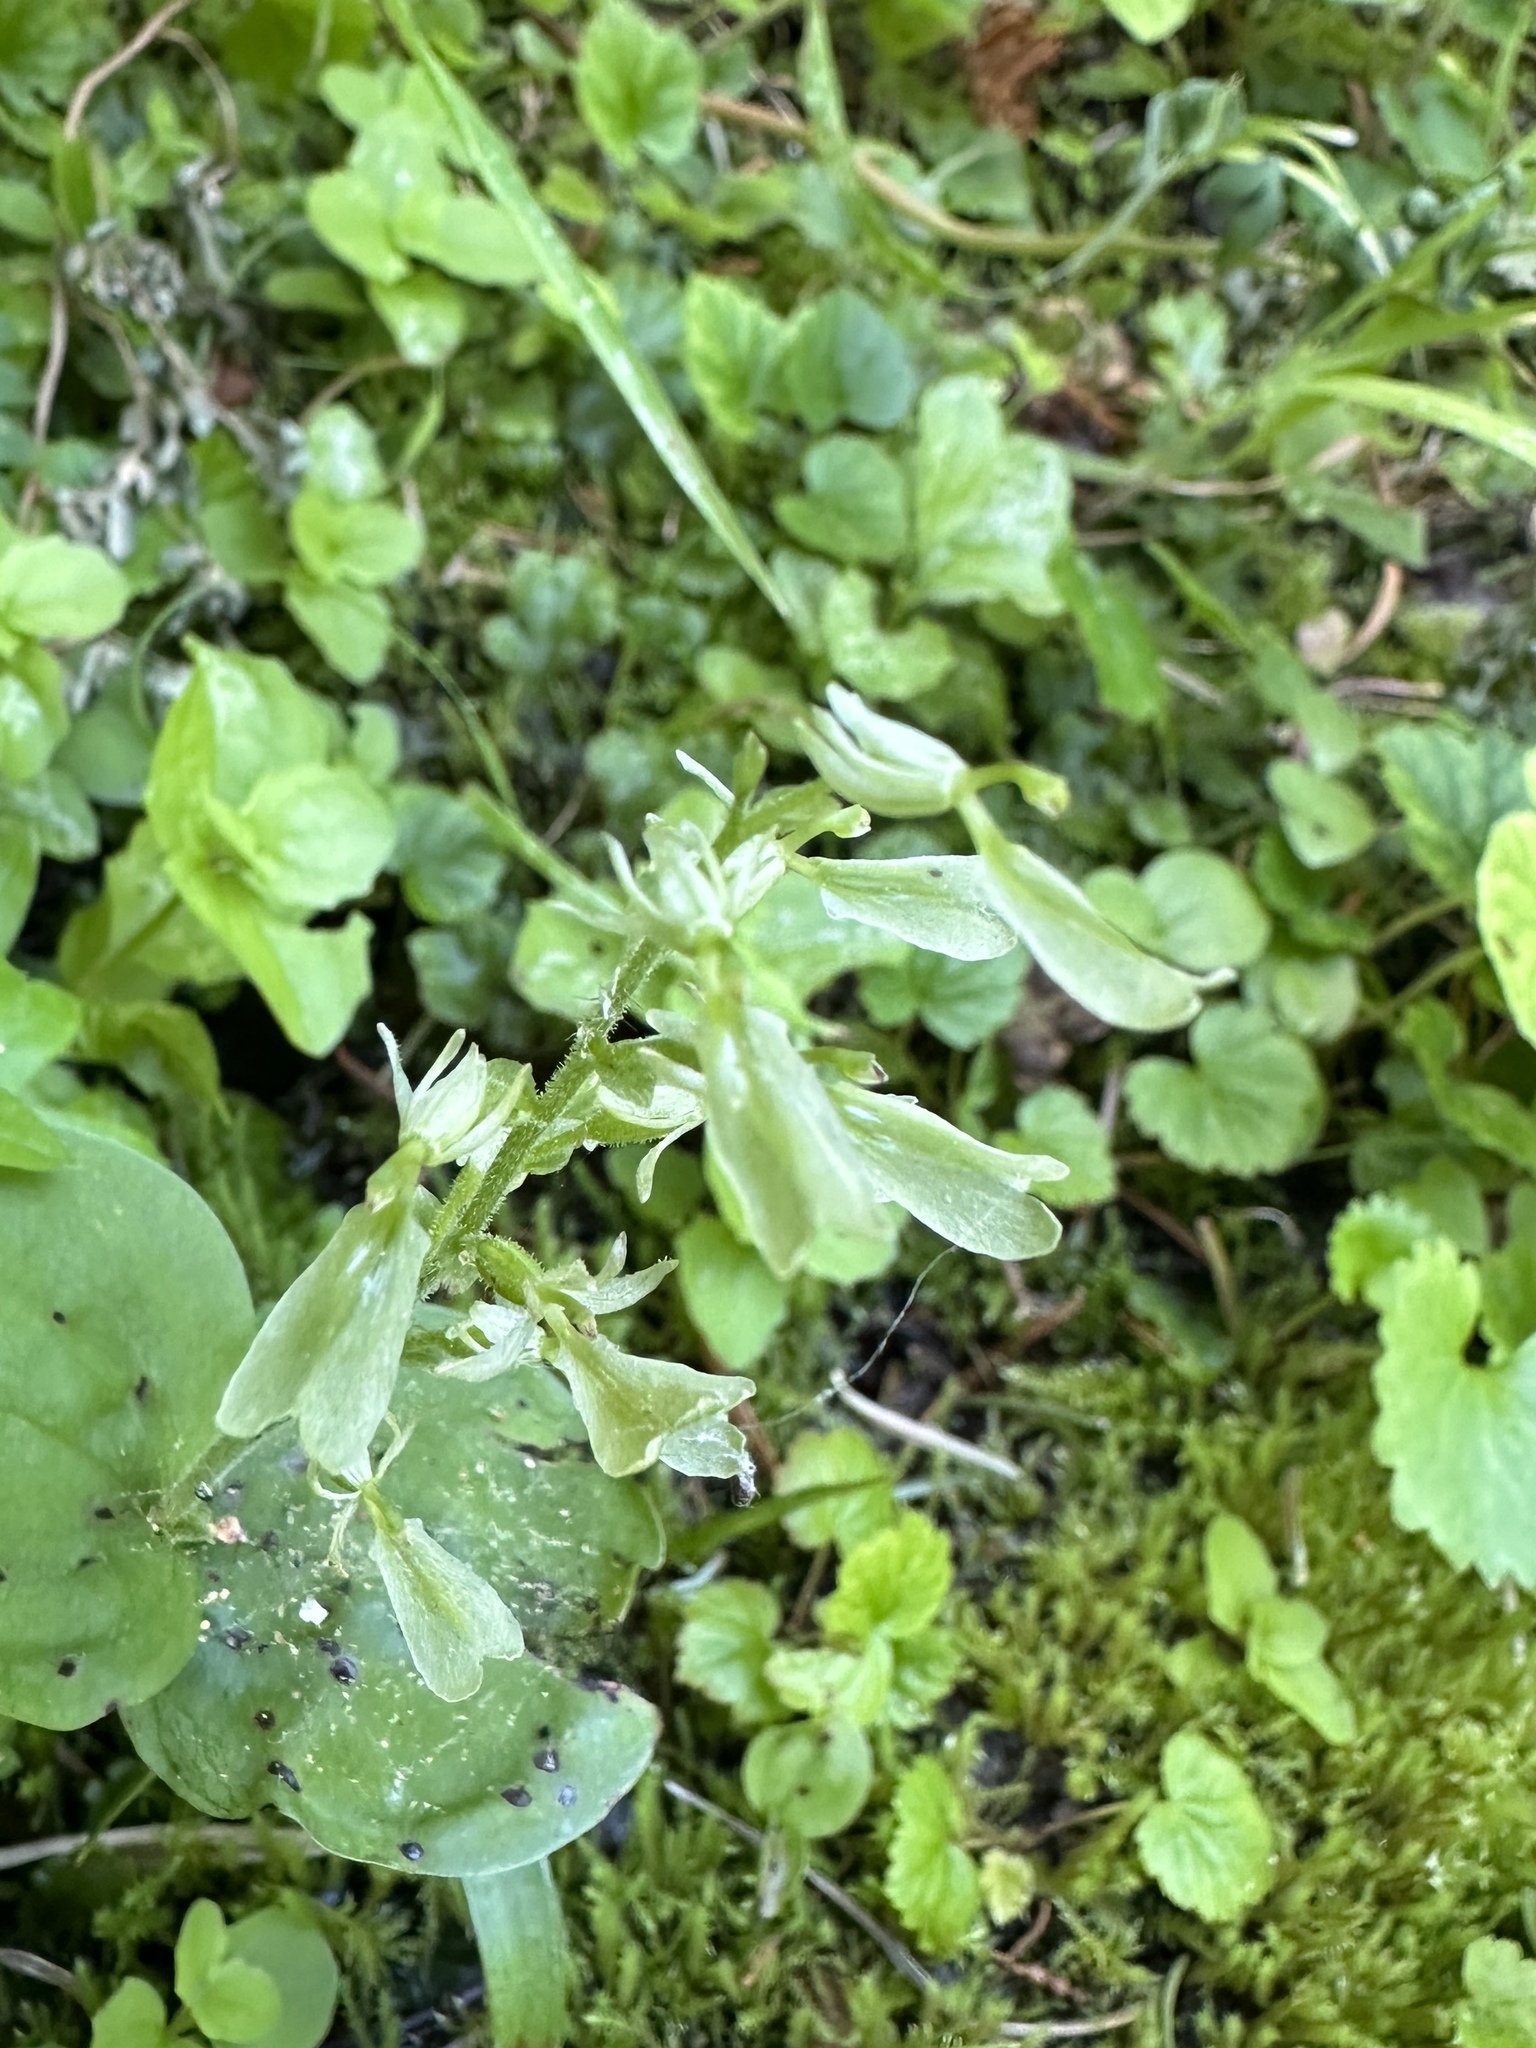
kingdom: Plantae
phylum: Tracheophyta
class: Liliopsida
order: Asparagales
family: Orchidaceae
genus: Neottia
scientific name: Neottia convallarioides
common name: Broadleaf twayblade
